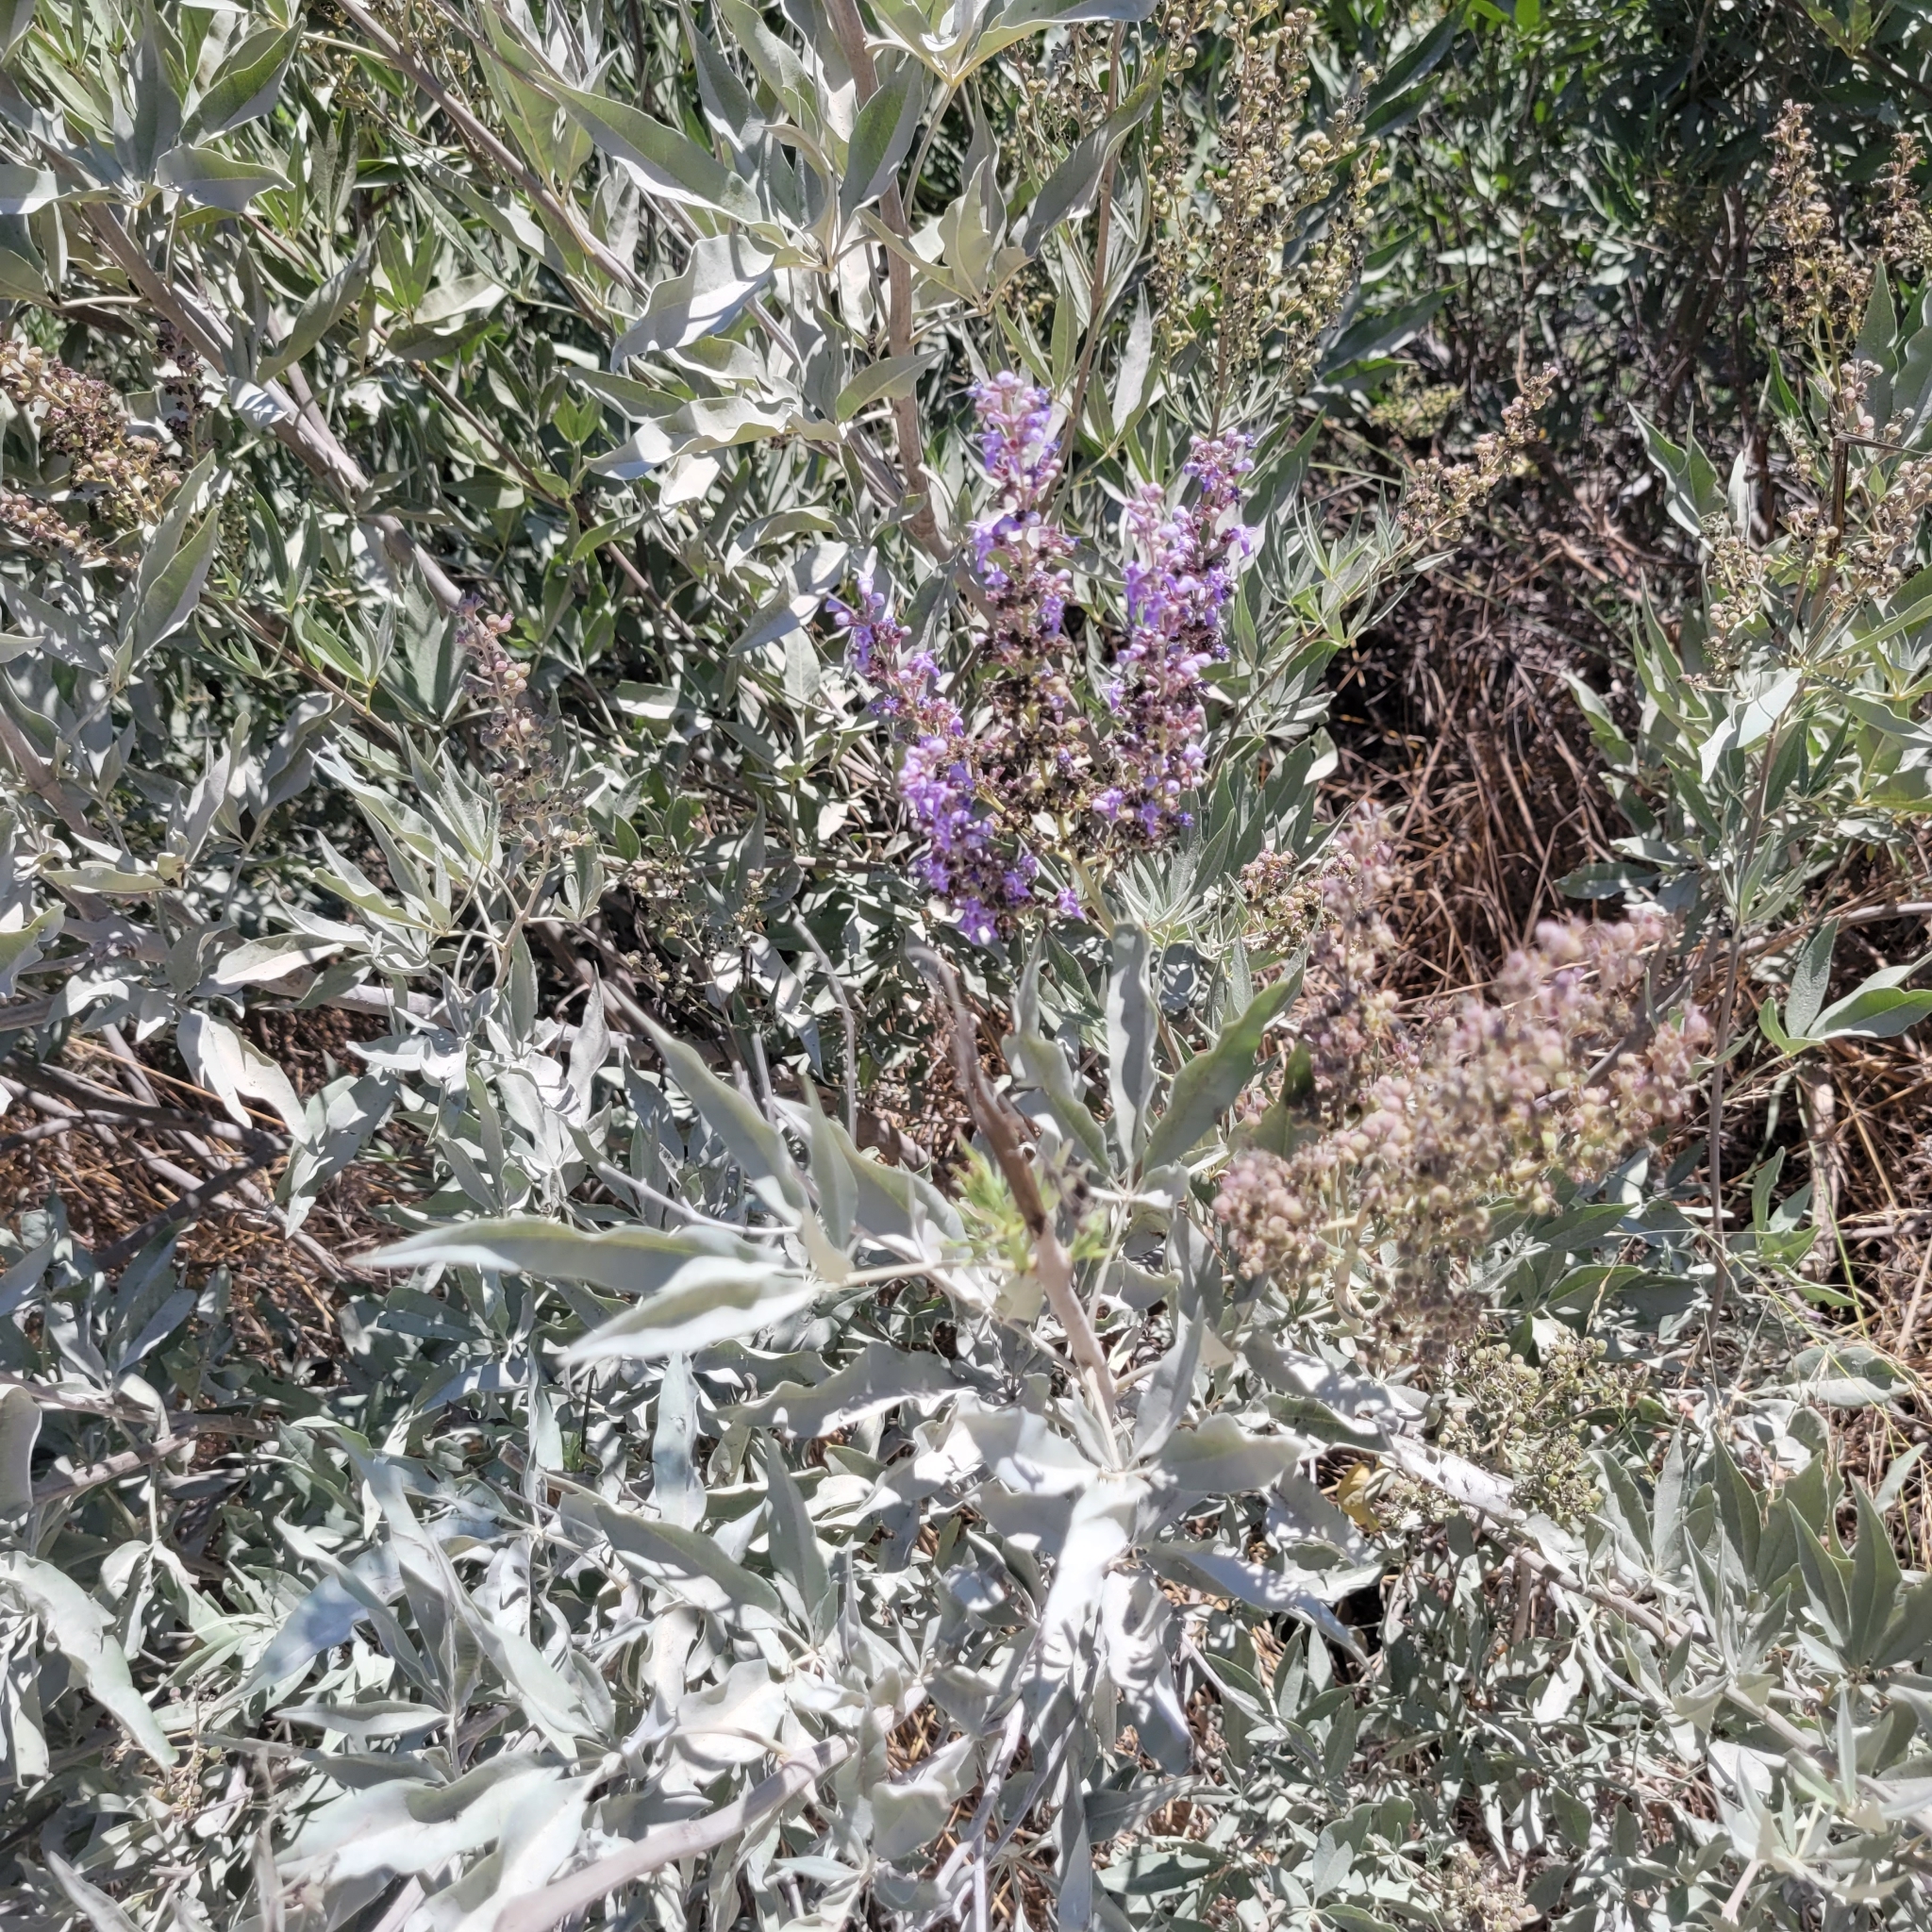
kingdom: Plantae
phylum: Tracheophyta
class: Magnoliopsida
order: Lamiales
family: Lamiaceae
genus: Vitex
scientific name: Vitex agnus-castus
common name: Chasteberry
